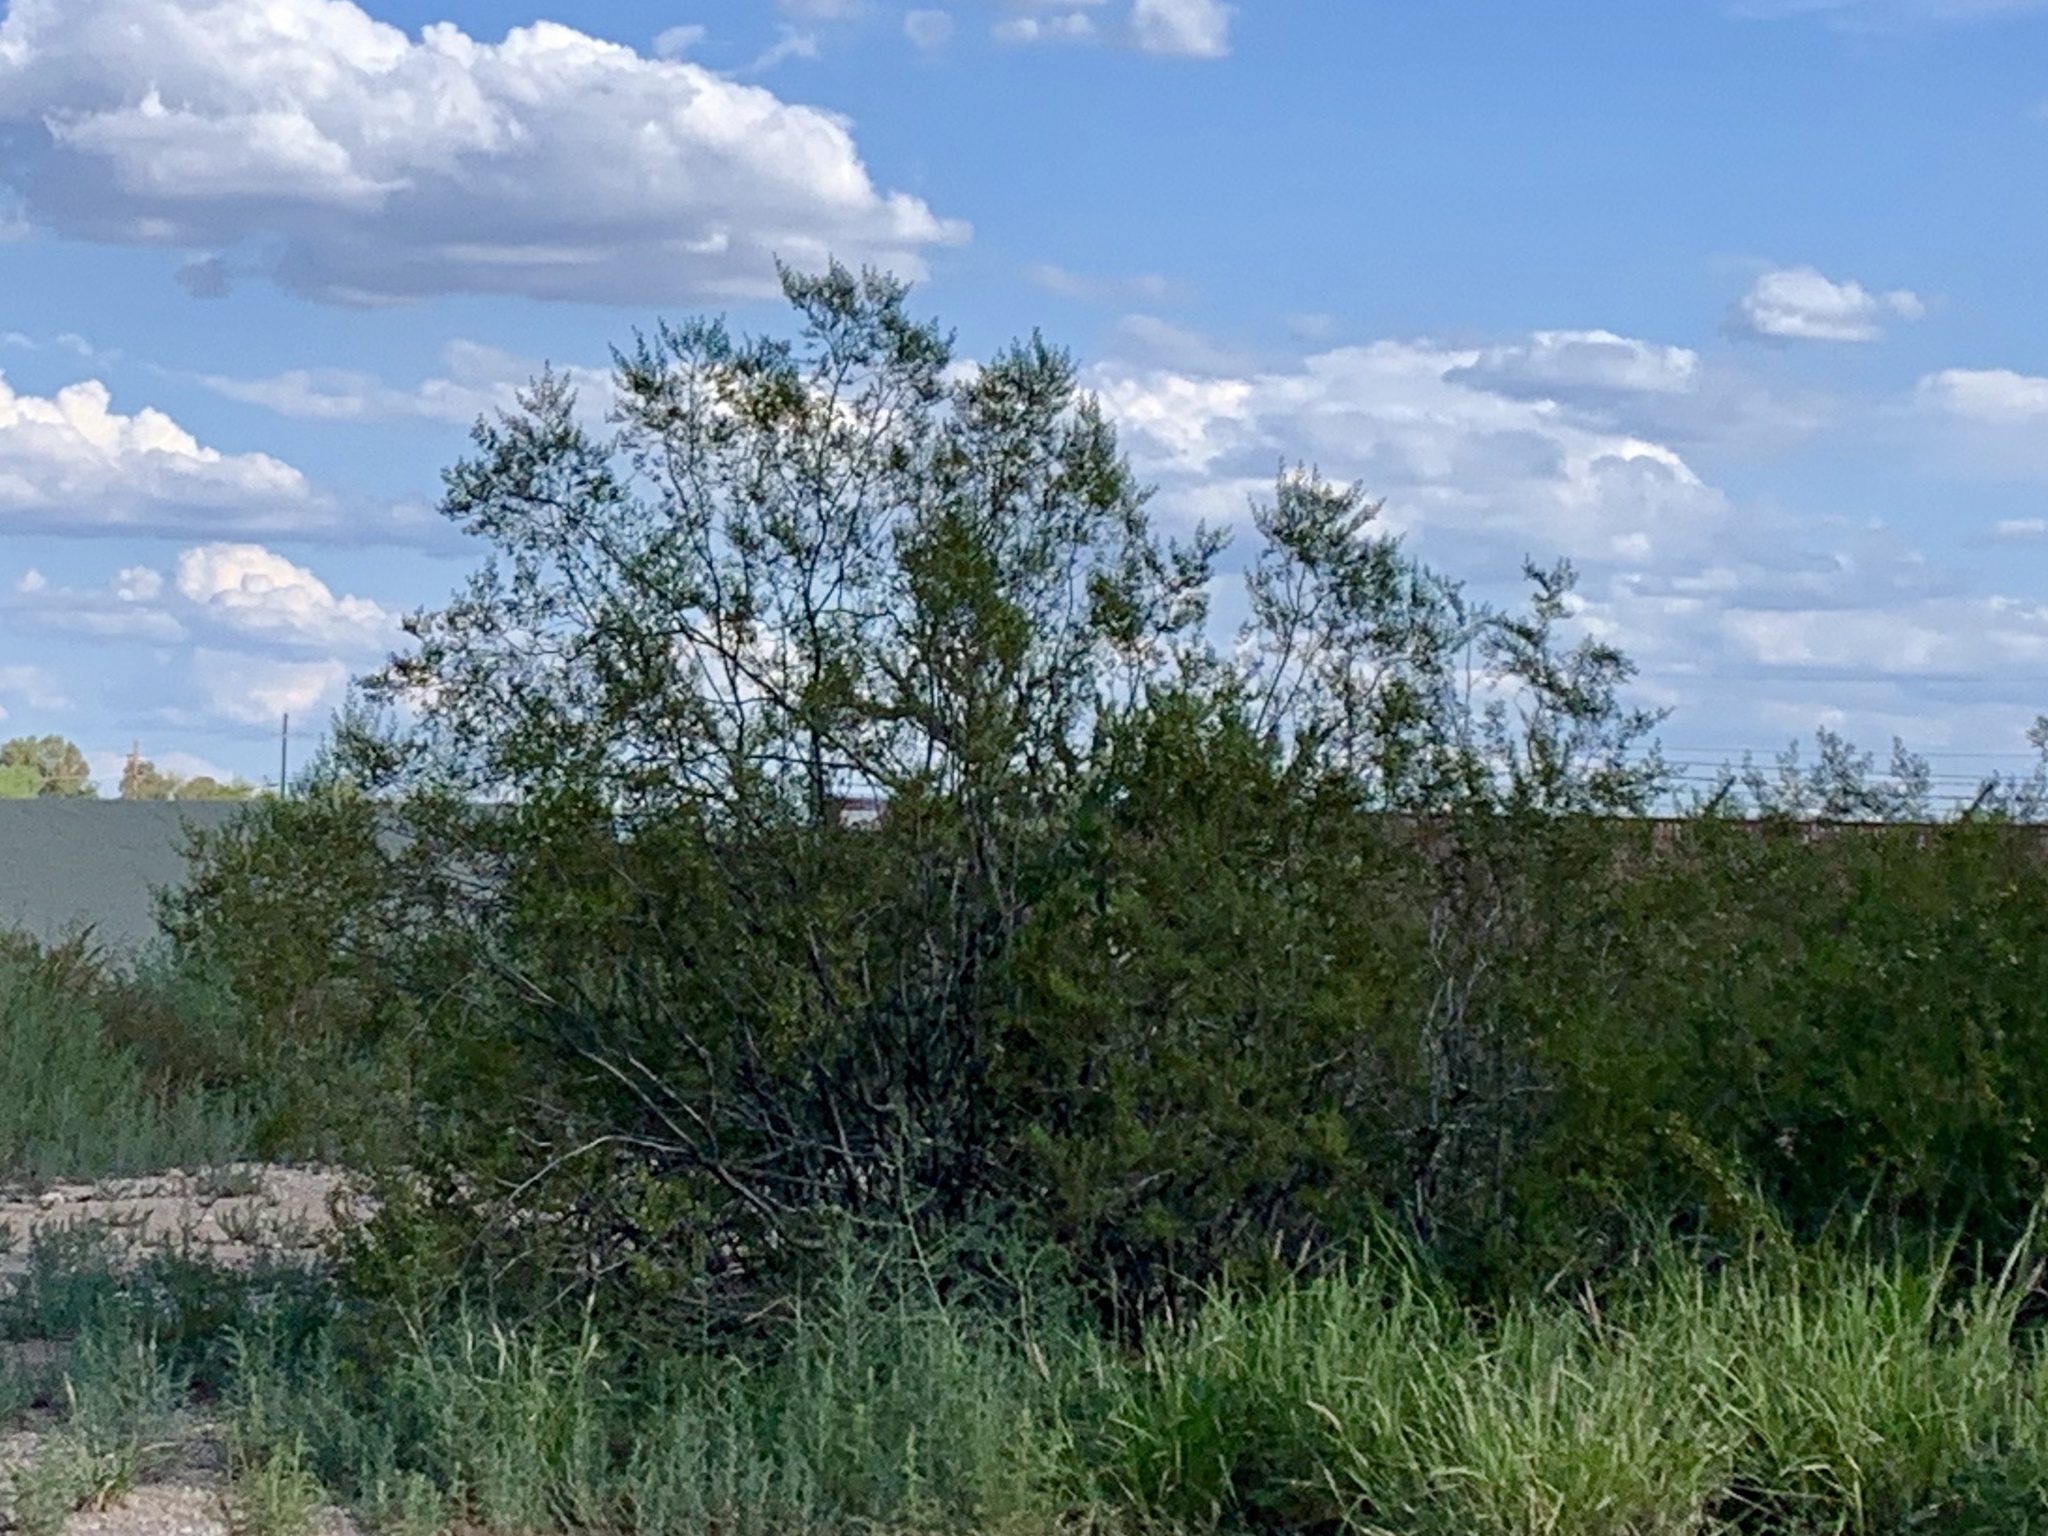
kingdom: Plantae
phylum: Tracheophyta
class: Magnoliopsida
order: Zygophyllales
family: Zygophyllaceae
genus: Larrea
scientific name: Larrea tridentata
